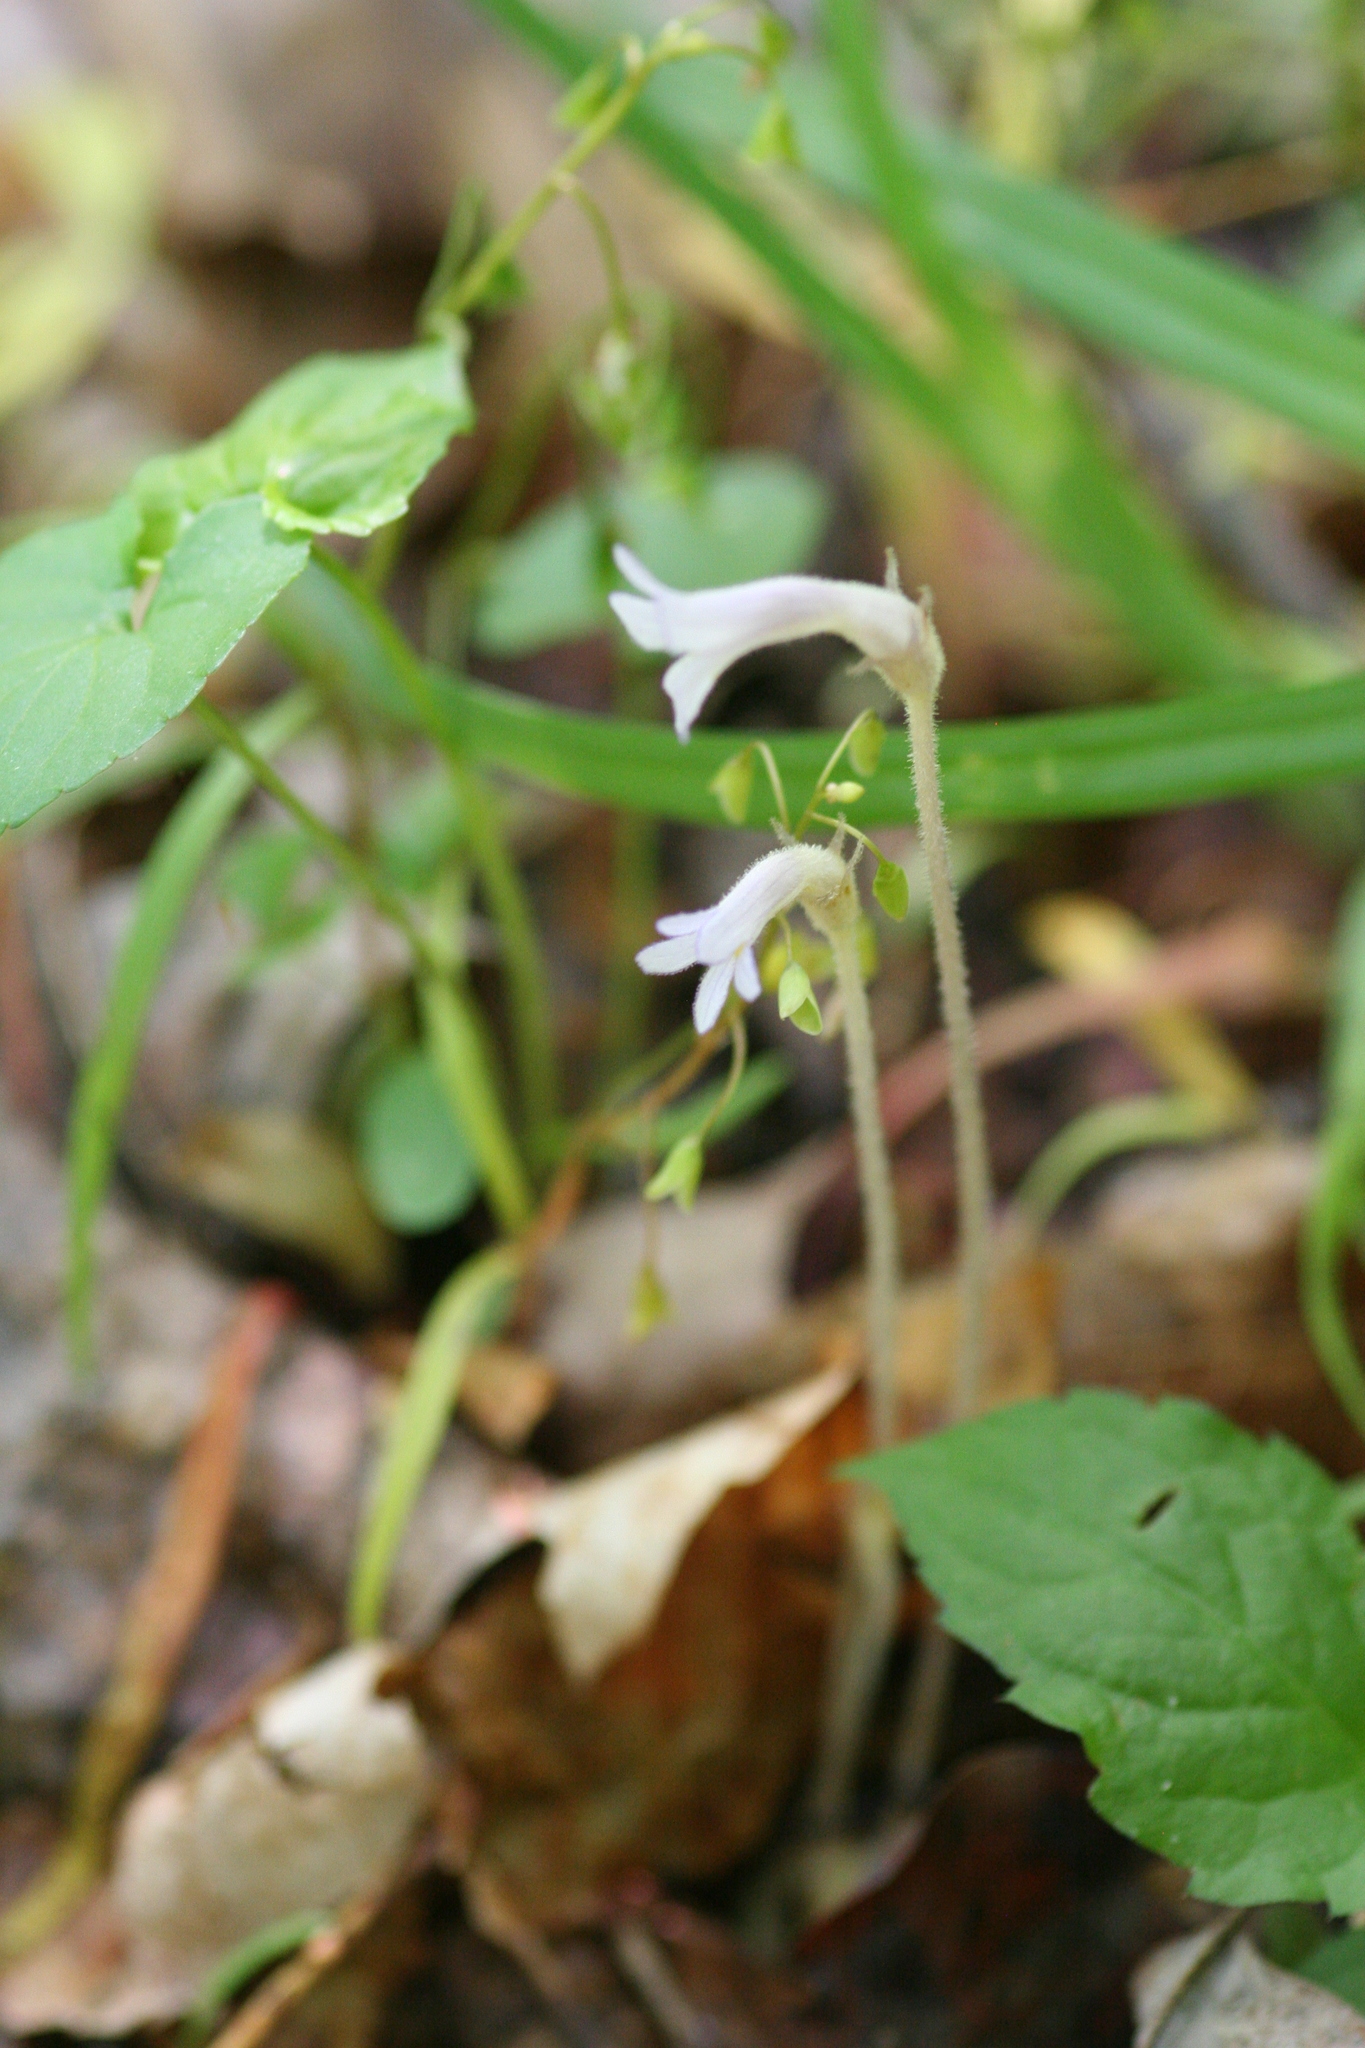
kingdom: Plantae
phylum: Tracheophyta
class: Magnoliopsida
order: Lamiales
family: Orobanchaceae
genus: Aphyllon
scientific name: Aphyllon uniflorum
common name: One-flowered broomrape
